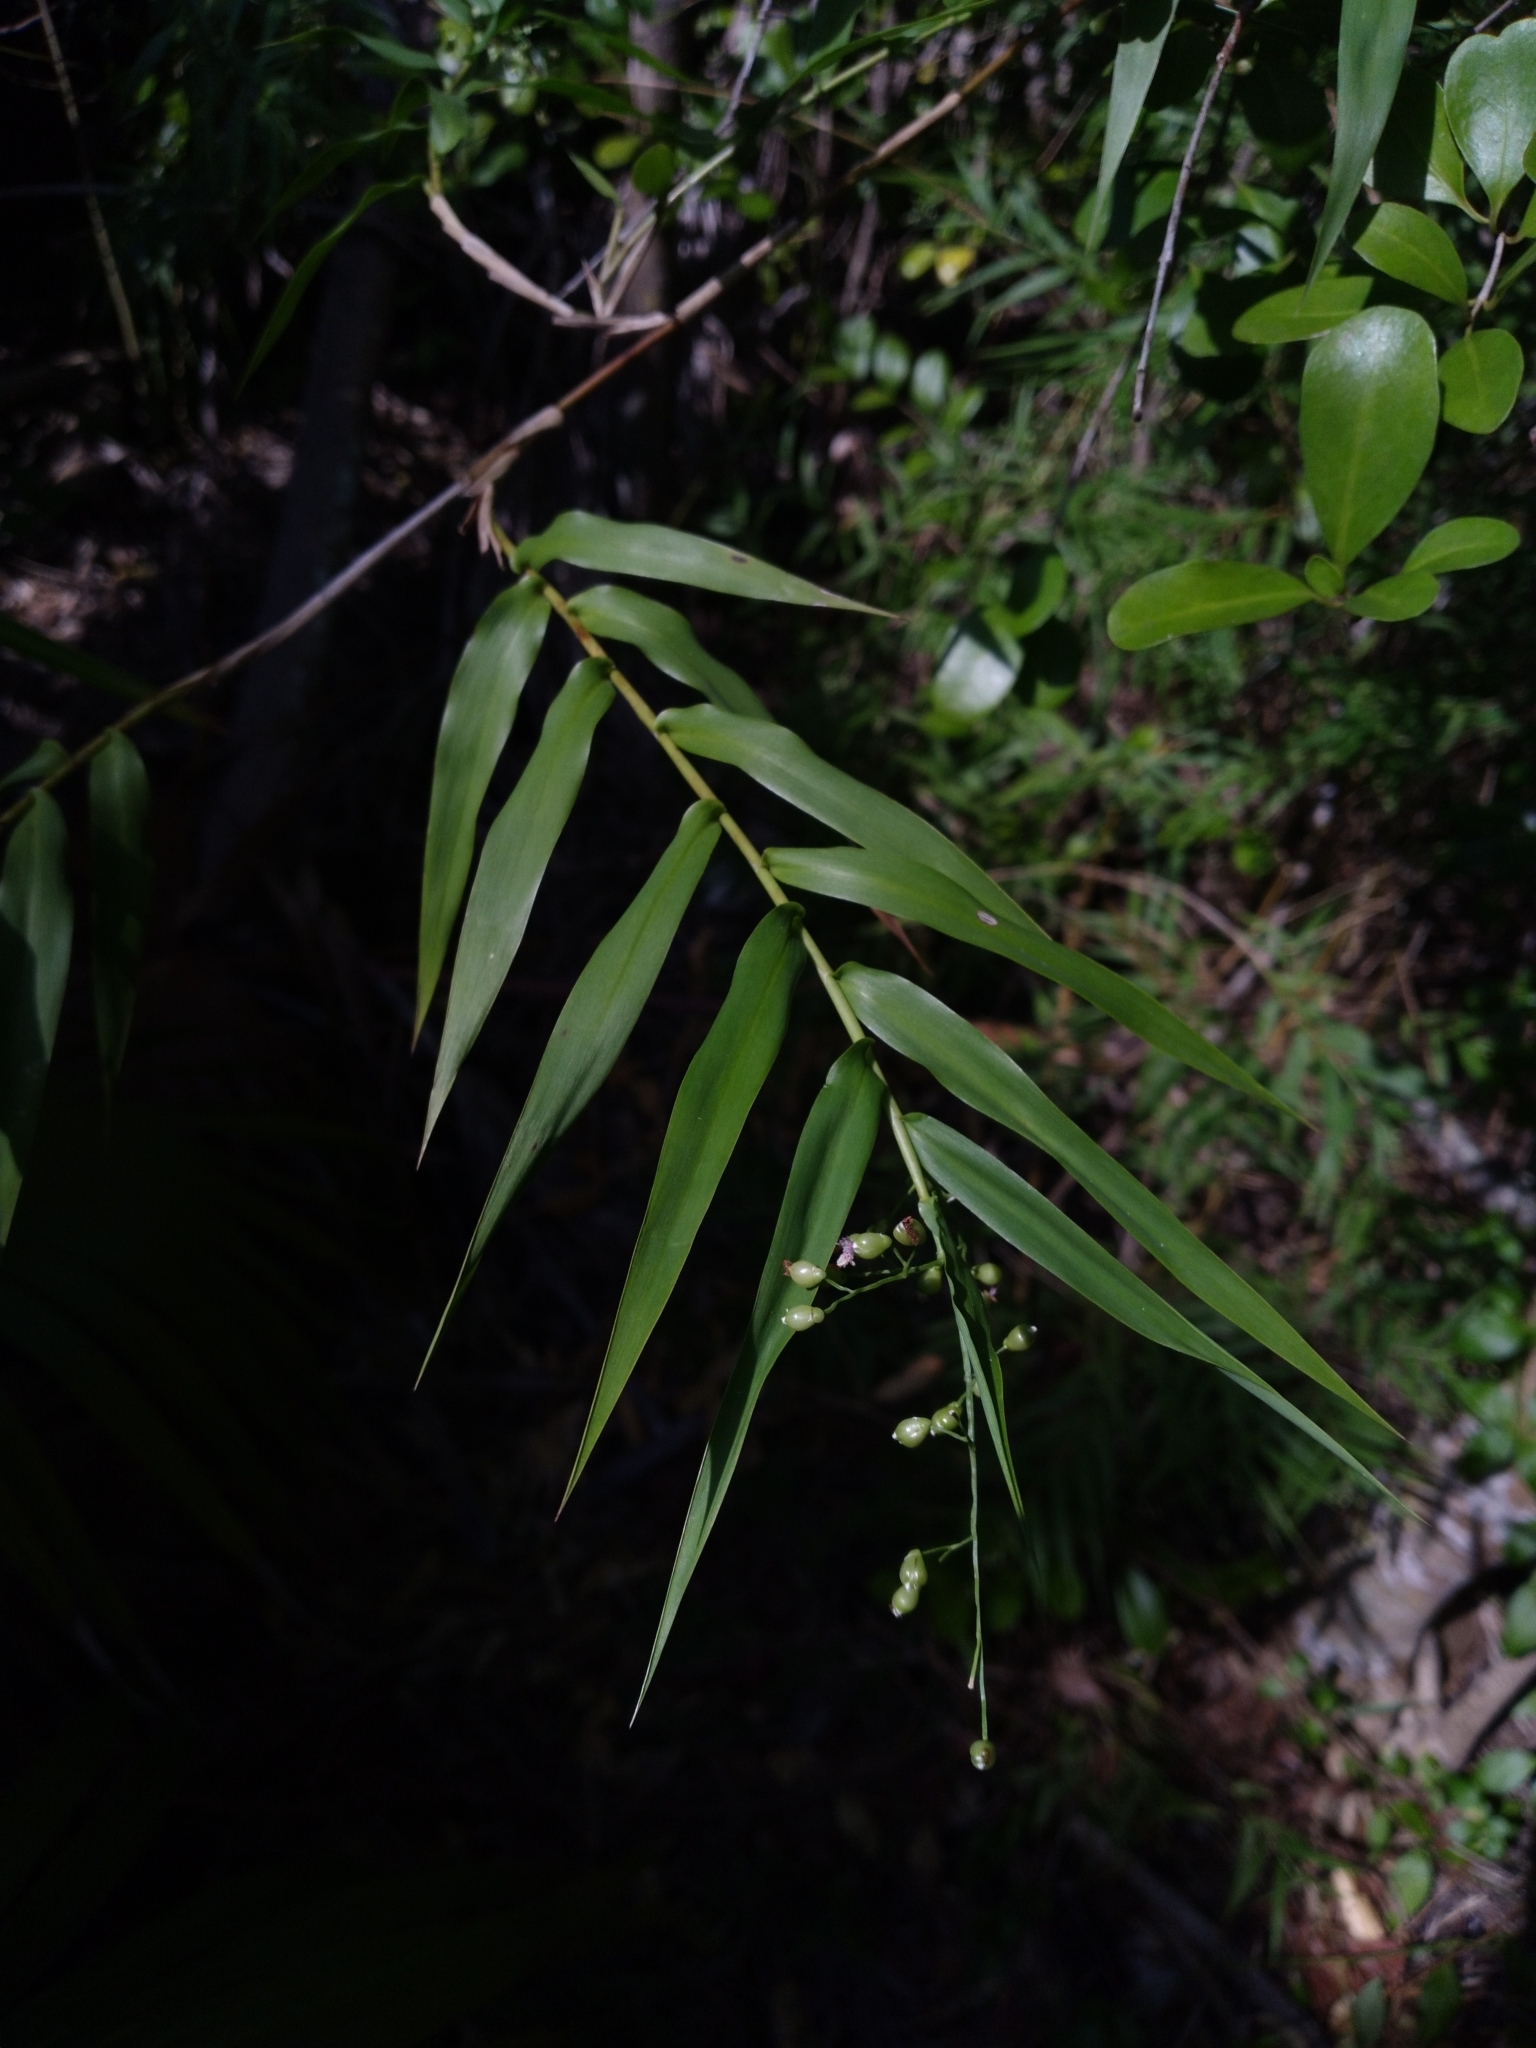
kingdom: Plantae
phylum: Tracheophyta
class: Liliopsida
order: Poales
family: Poaceae
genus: Lasiacis
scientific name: Lasiacis divaricata
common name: Smallcane
